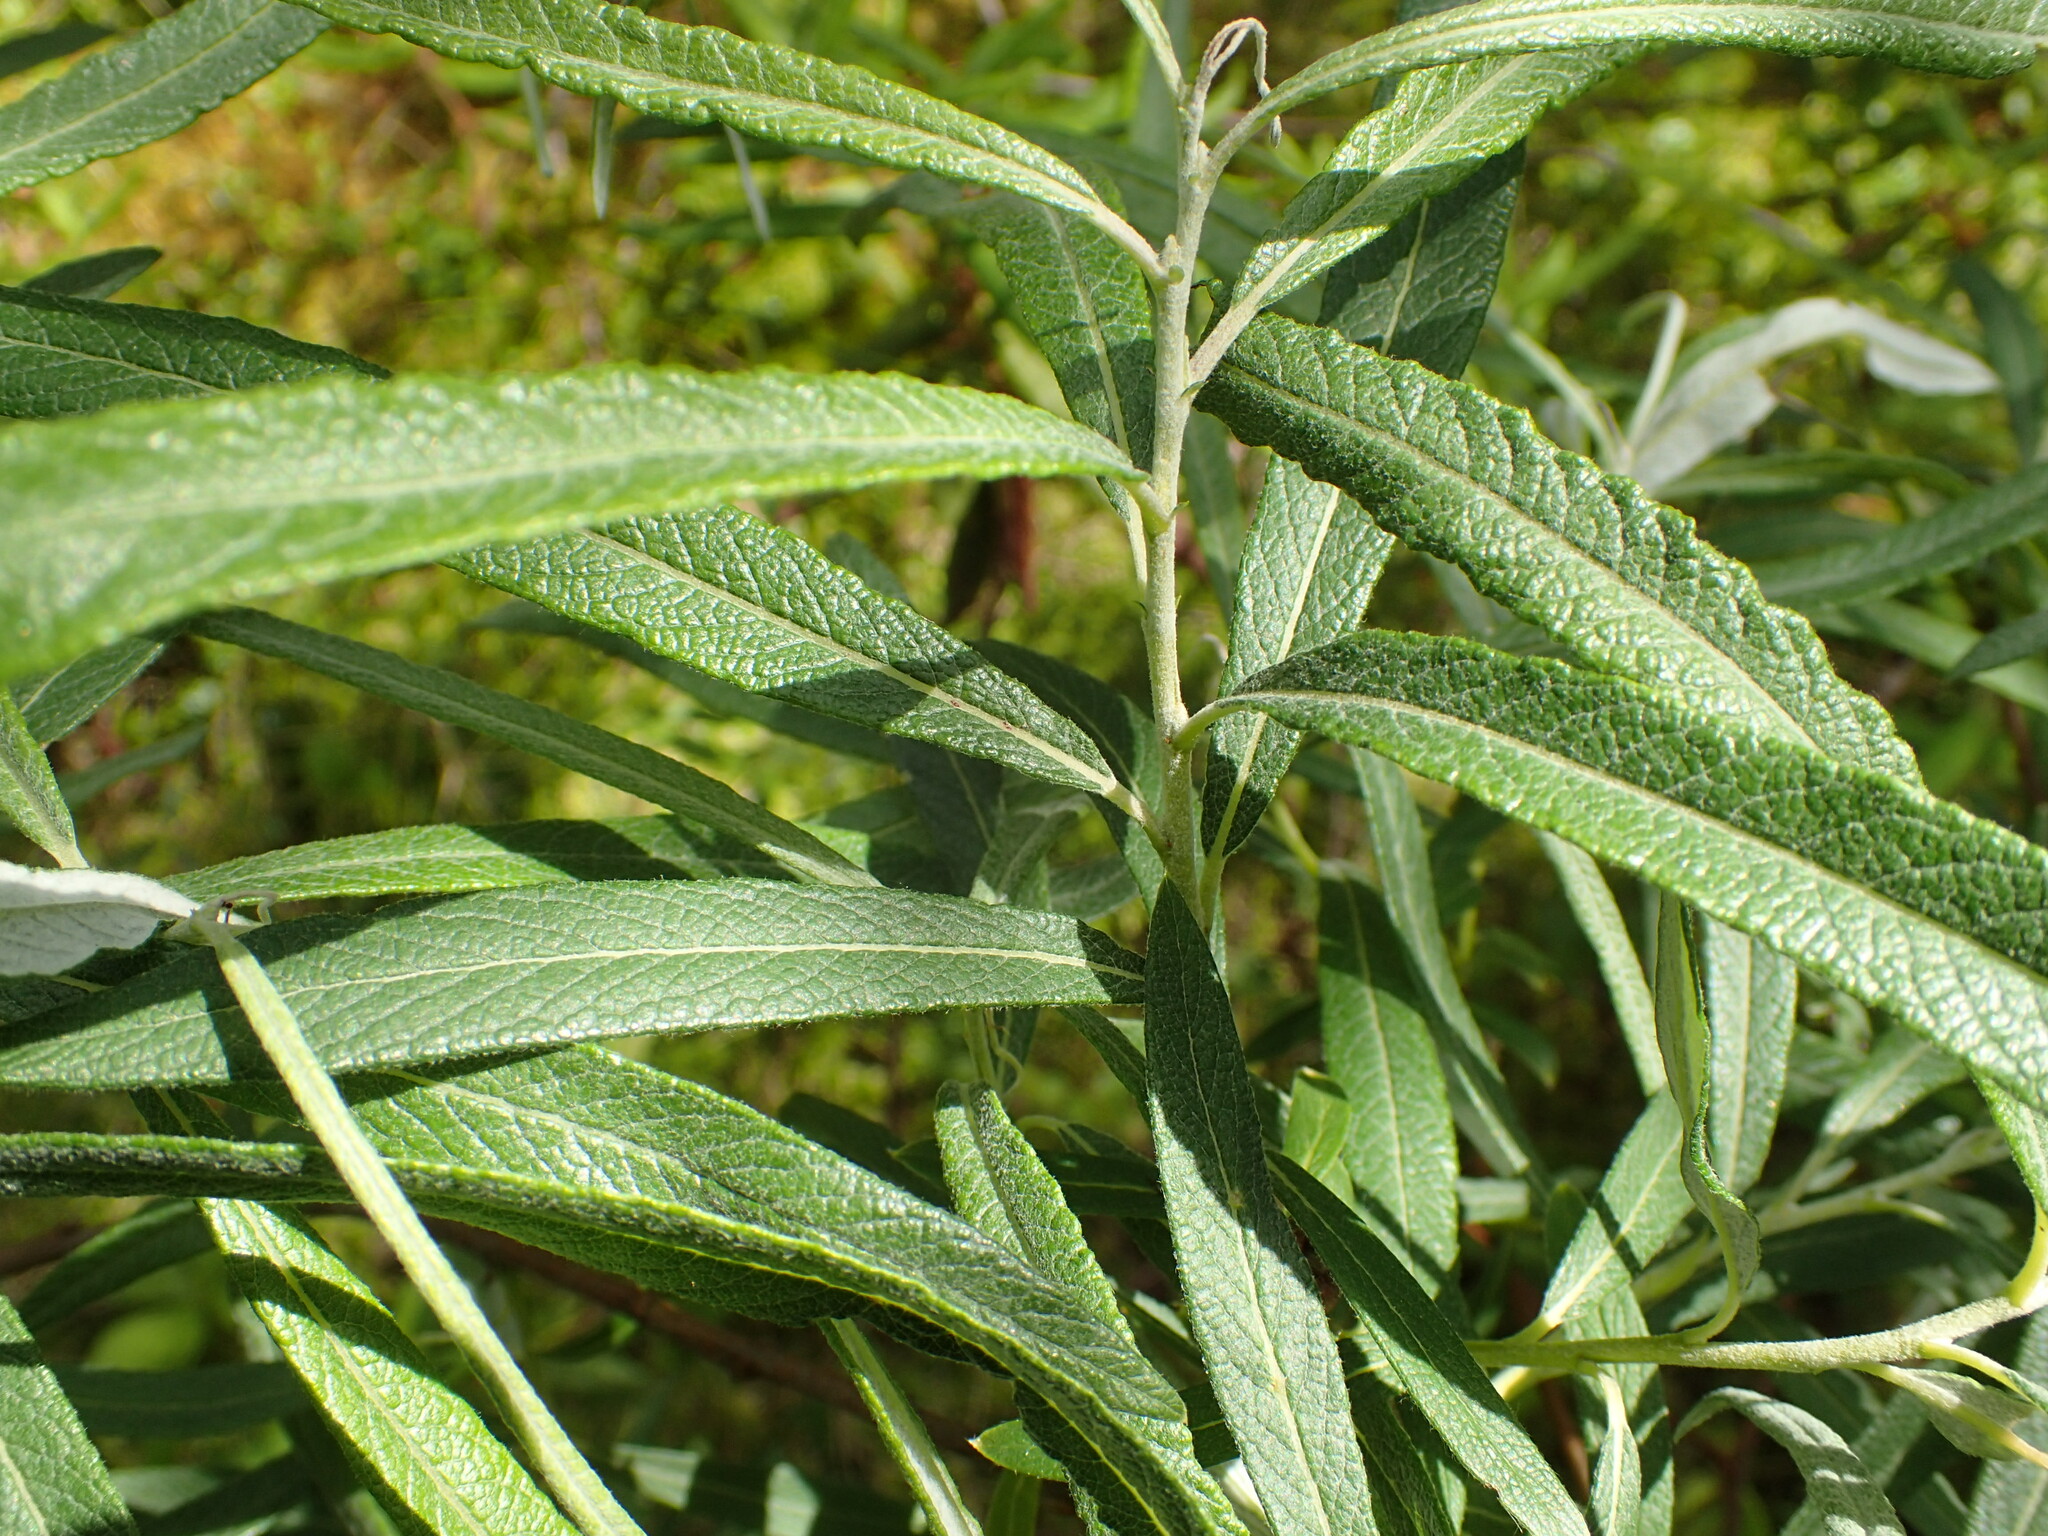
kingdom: Plantae
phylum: Tracheophyta
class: Magnoliopsida
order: Malpighiales
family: Salicaceae
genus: Salix
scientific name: Salix candida
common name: Hoary willow
